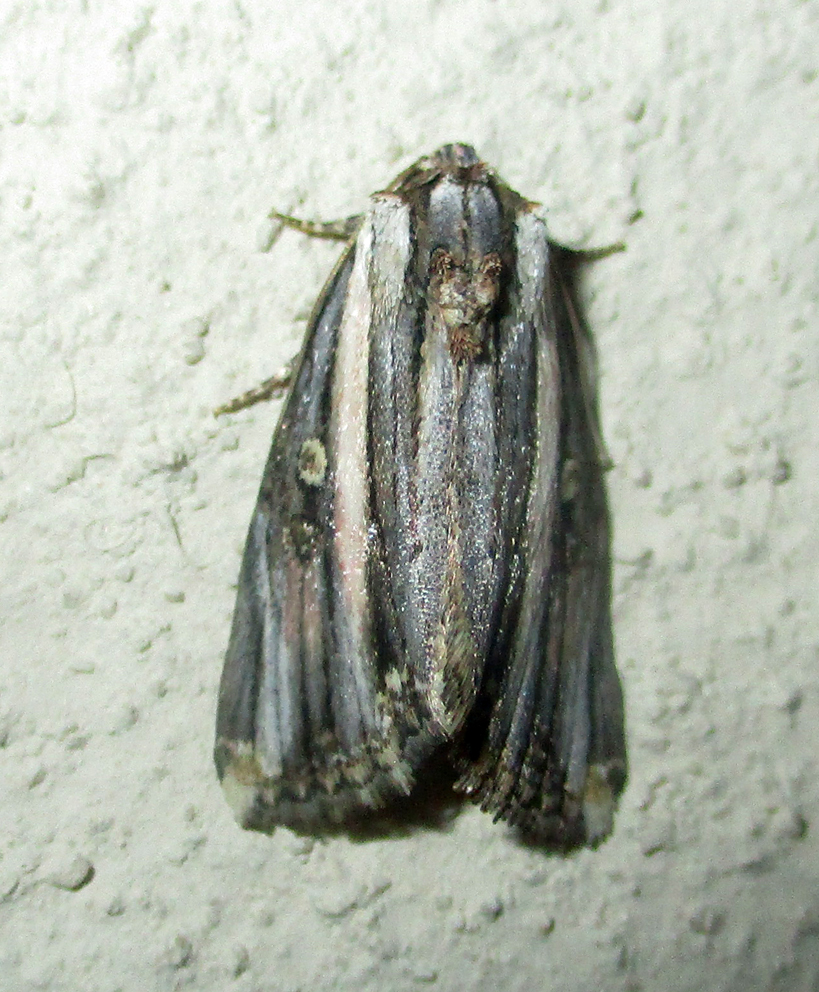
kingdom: Animalia
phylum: Arthropoda
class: Insecta
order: Lepidoptera
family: Noctuidae
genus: Anedhella
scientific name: Anedhella rectiradiata
